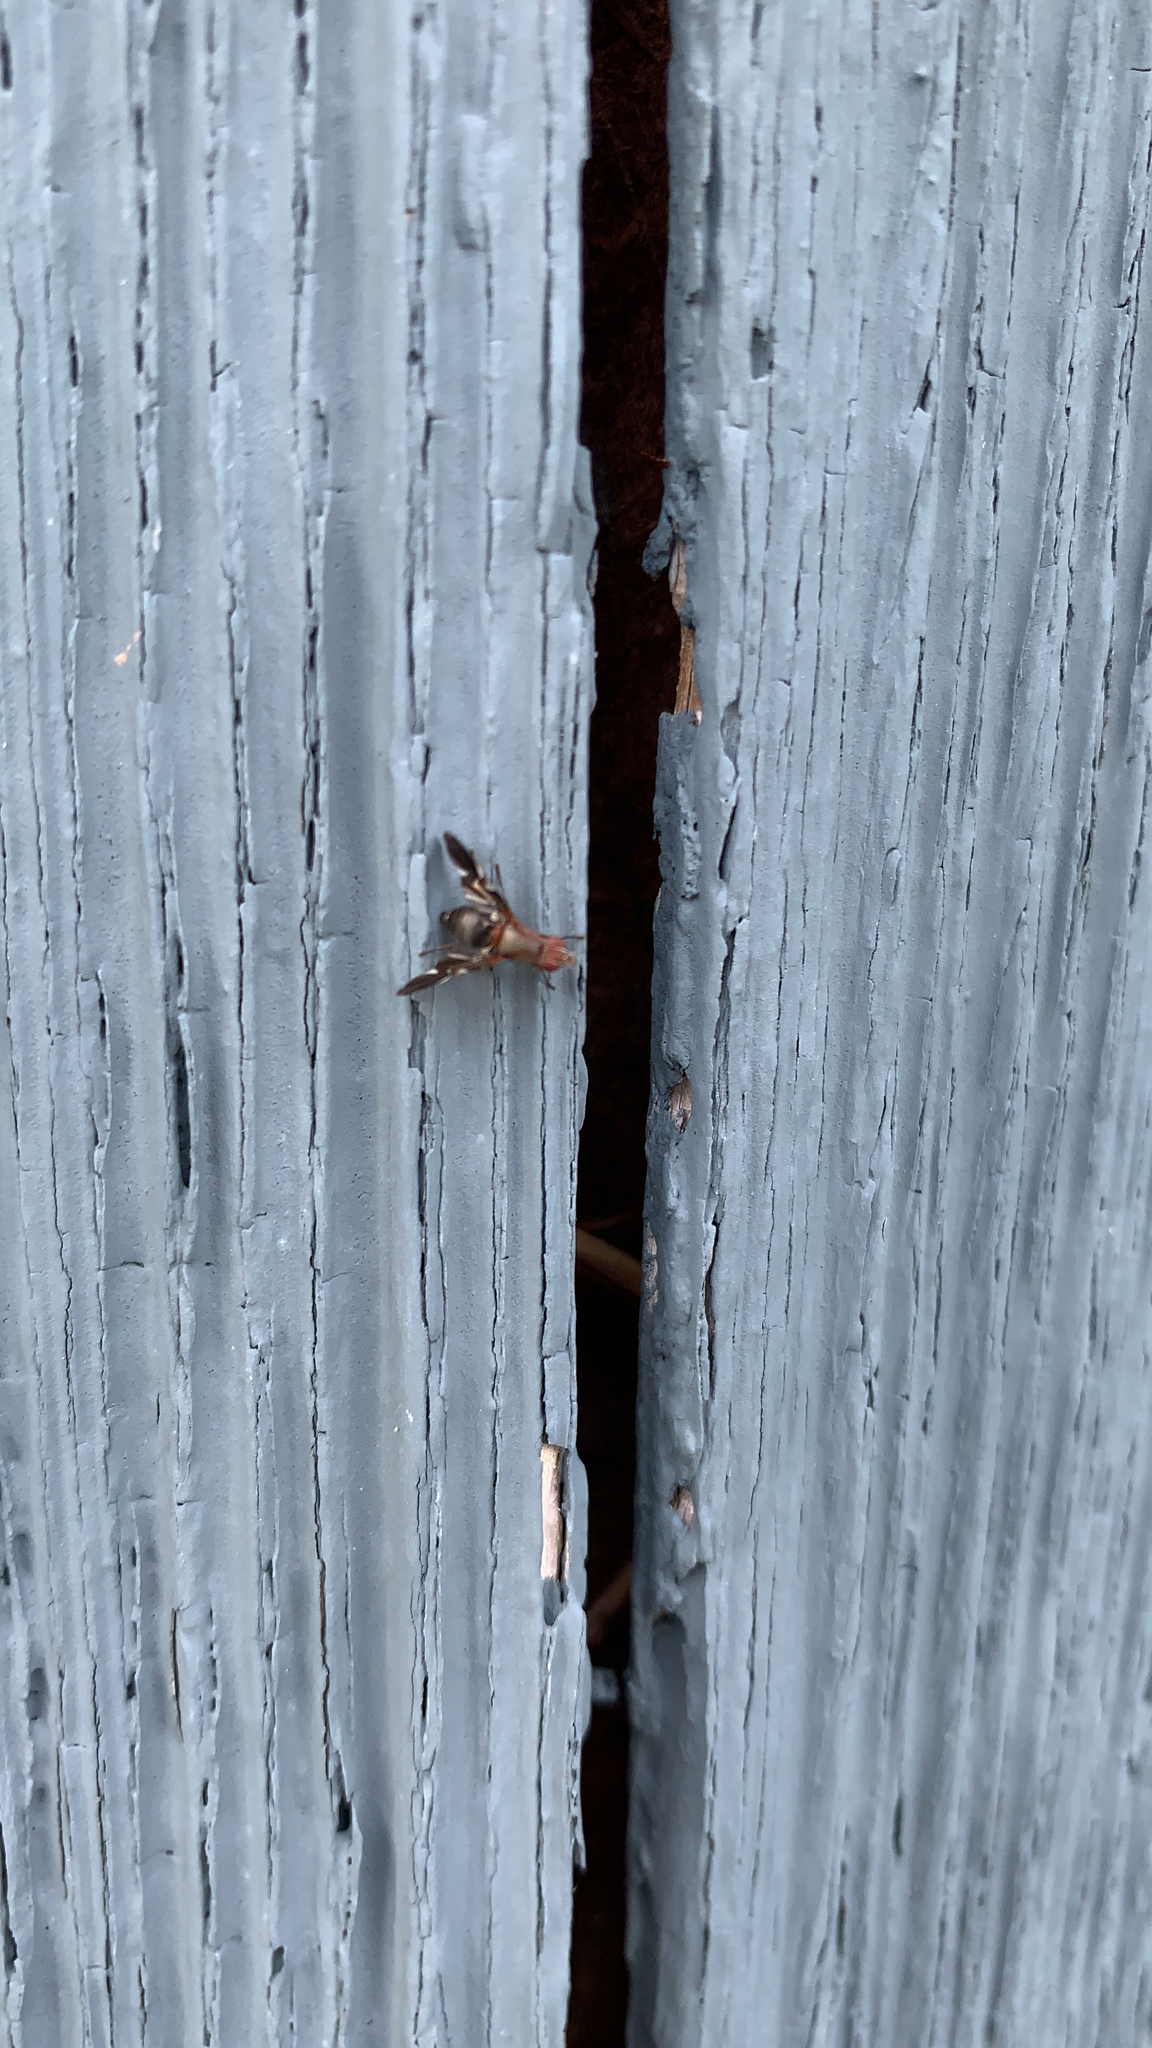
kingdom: Animalia
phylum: Arthropoda
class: Insecta
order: Diptera
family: Ulidiidae
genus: Delphinia
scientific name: Delphinia picta
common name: Common picture-winged fly
